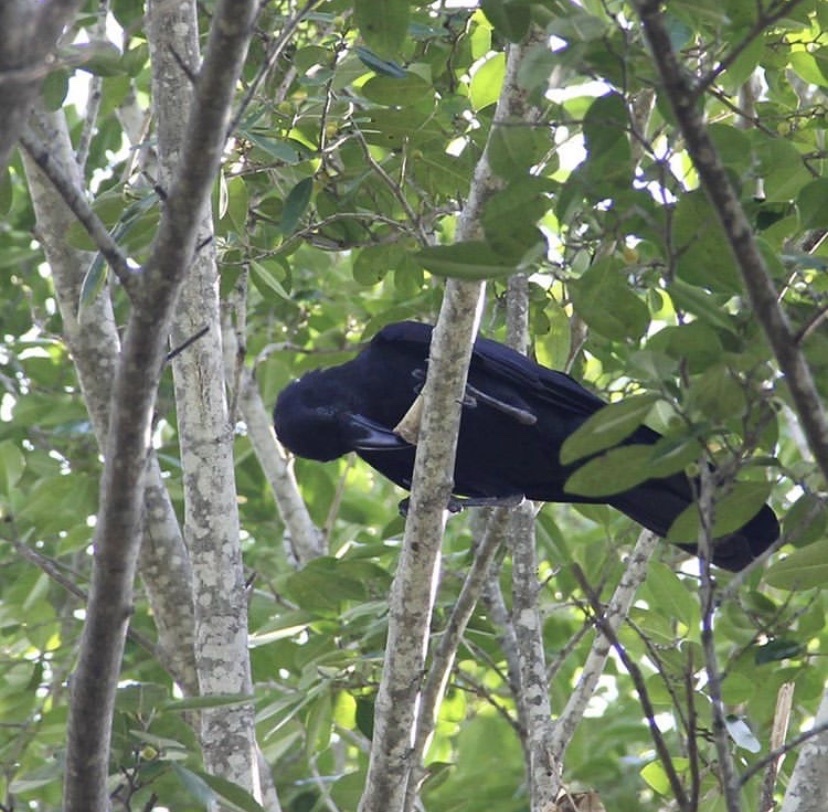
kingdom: Animalia
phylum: Chordata
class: Aves
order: Passeriformes
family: Corvidae
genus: Corvus
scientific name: Corvus macrorhynchos
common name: Large-billed crow
